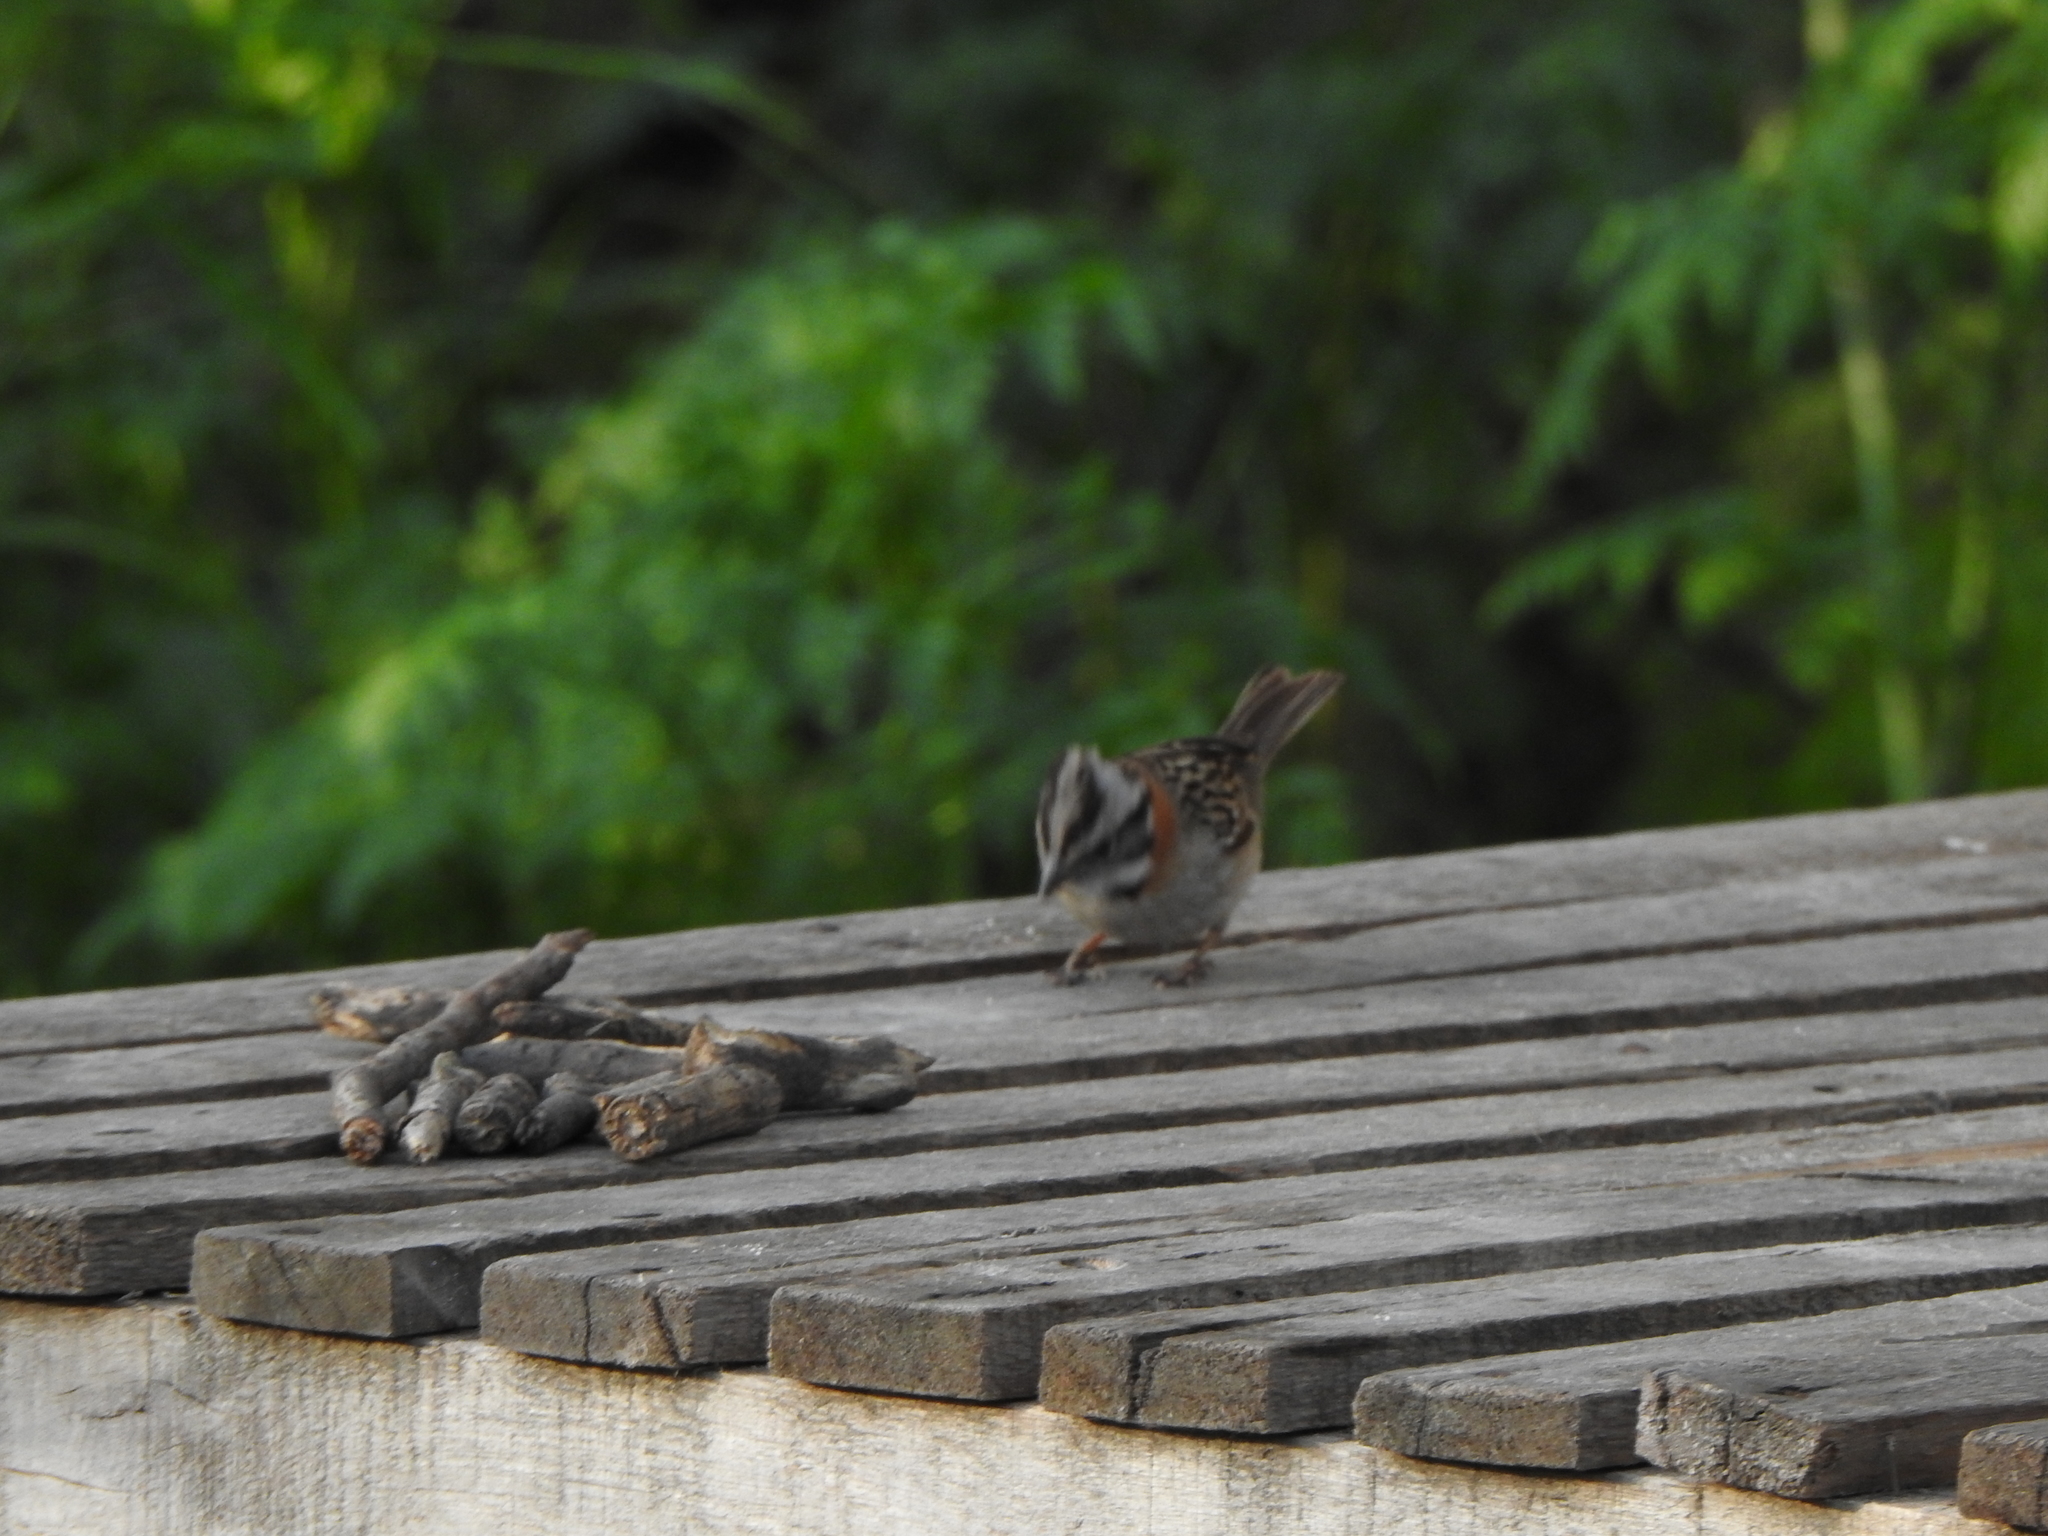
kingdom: Animalia
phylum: Chordata
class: Aves
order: Passeriformes
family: Passerellidae
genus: Zonotrichia
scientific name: Zonotrichia capensis
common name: Rufous-collared sparrow
